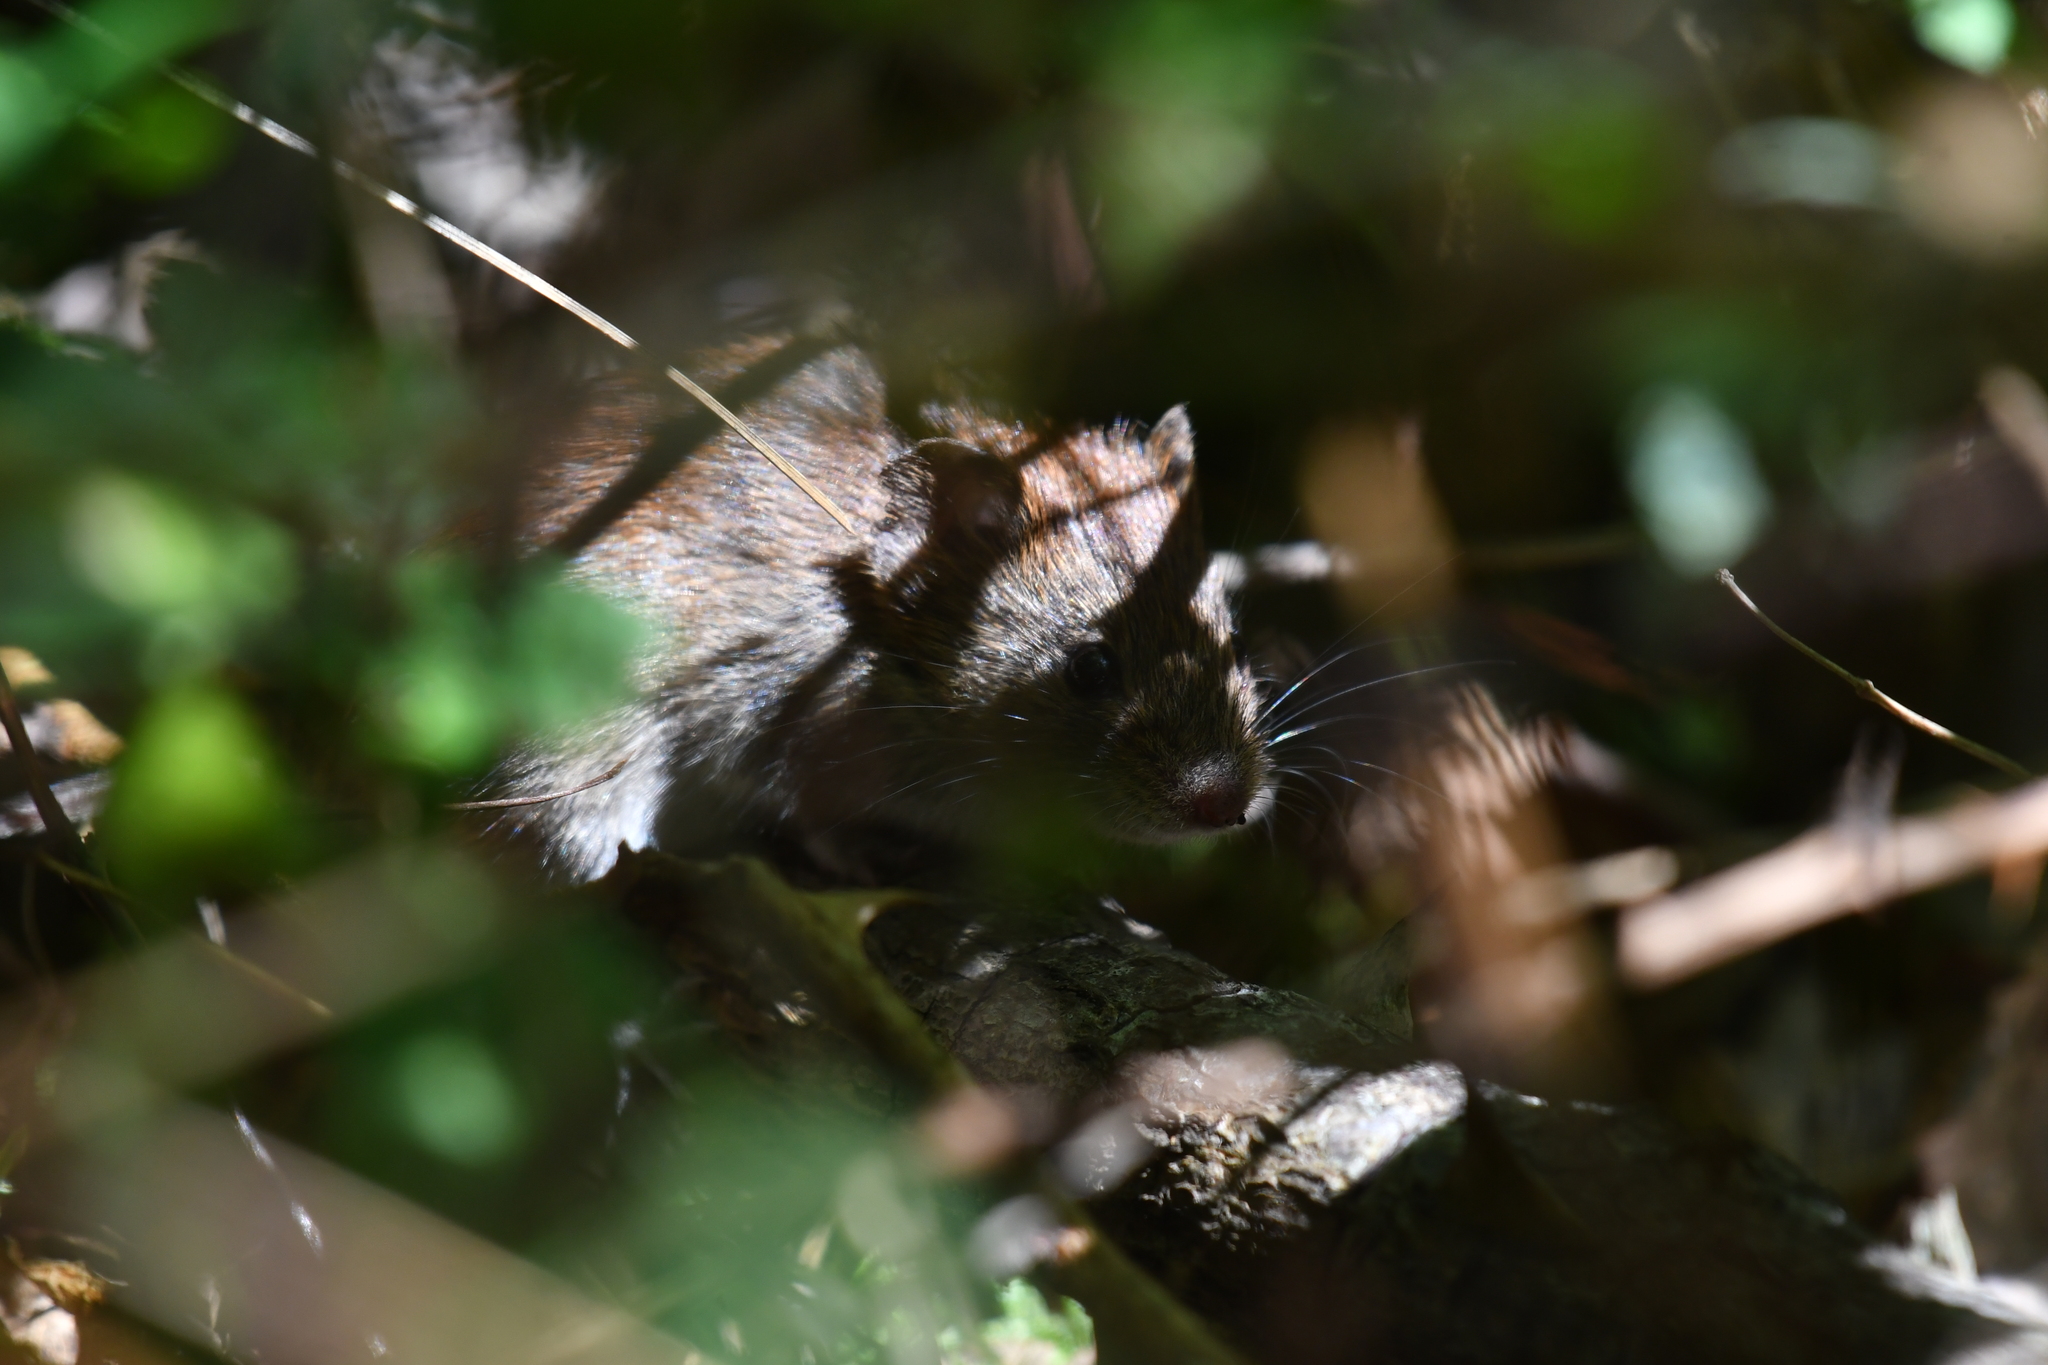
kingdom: Animalia
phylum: Chordata
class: Mammalia
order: Rodentia
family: Cricetidae
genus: Myodes
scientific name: Myodes glareolus
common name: Bank vole
